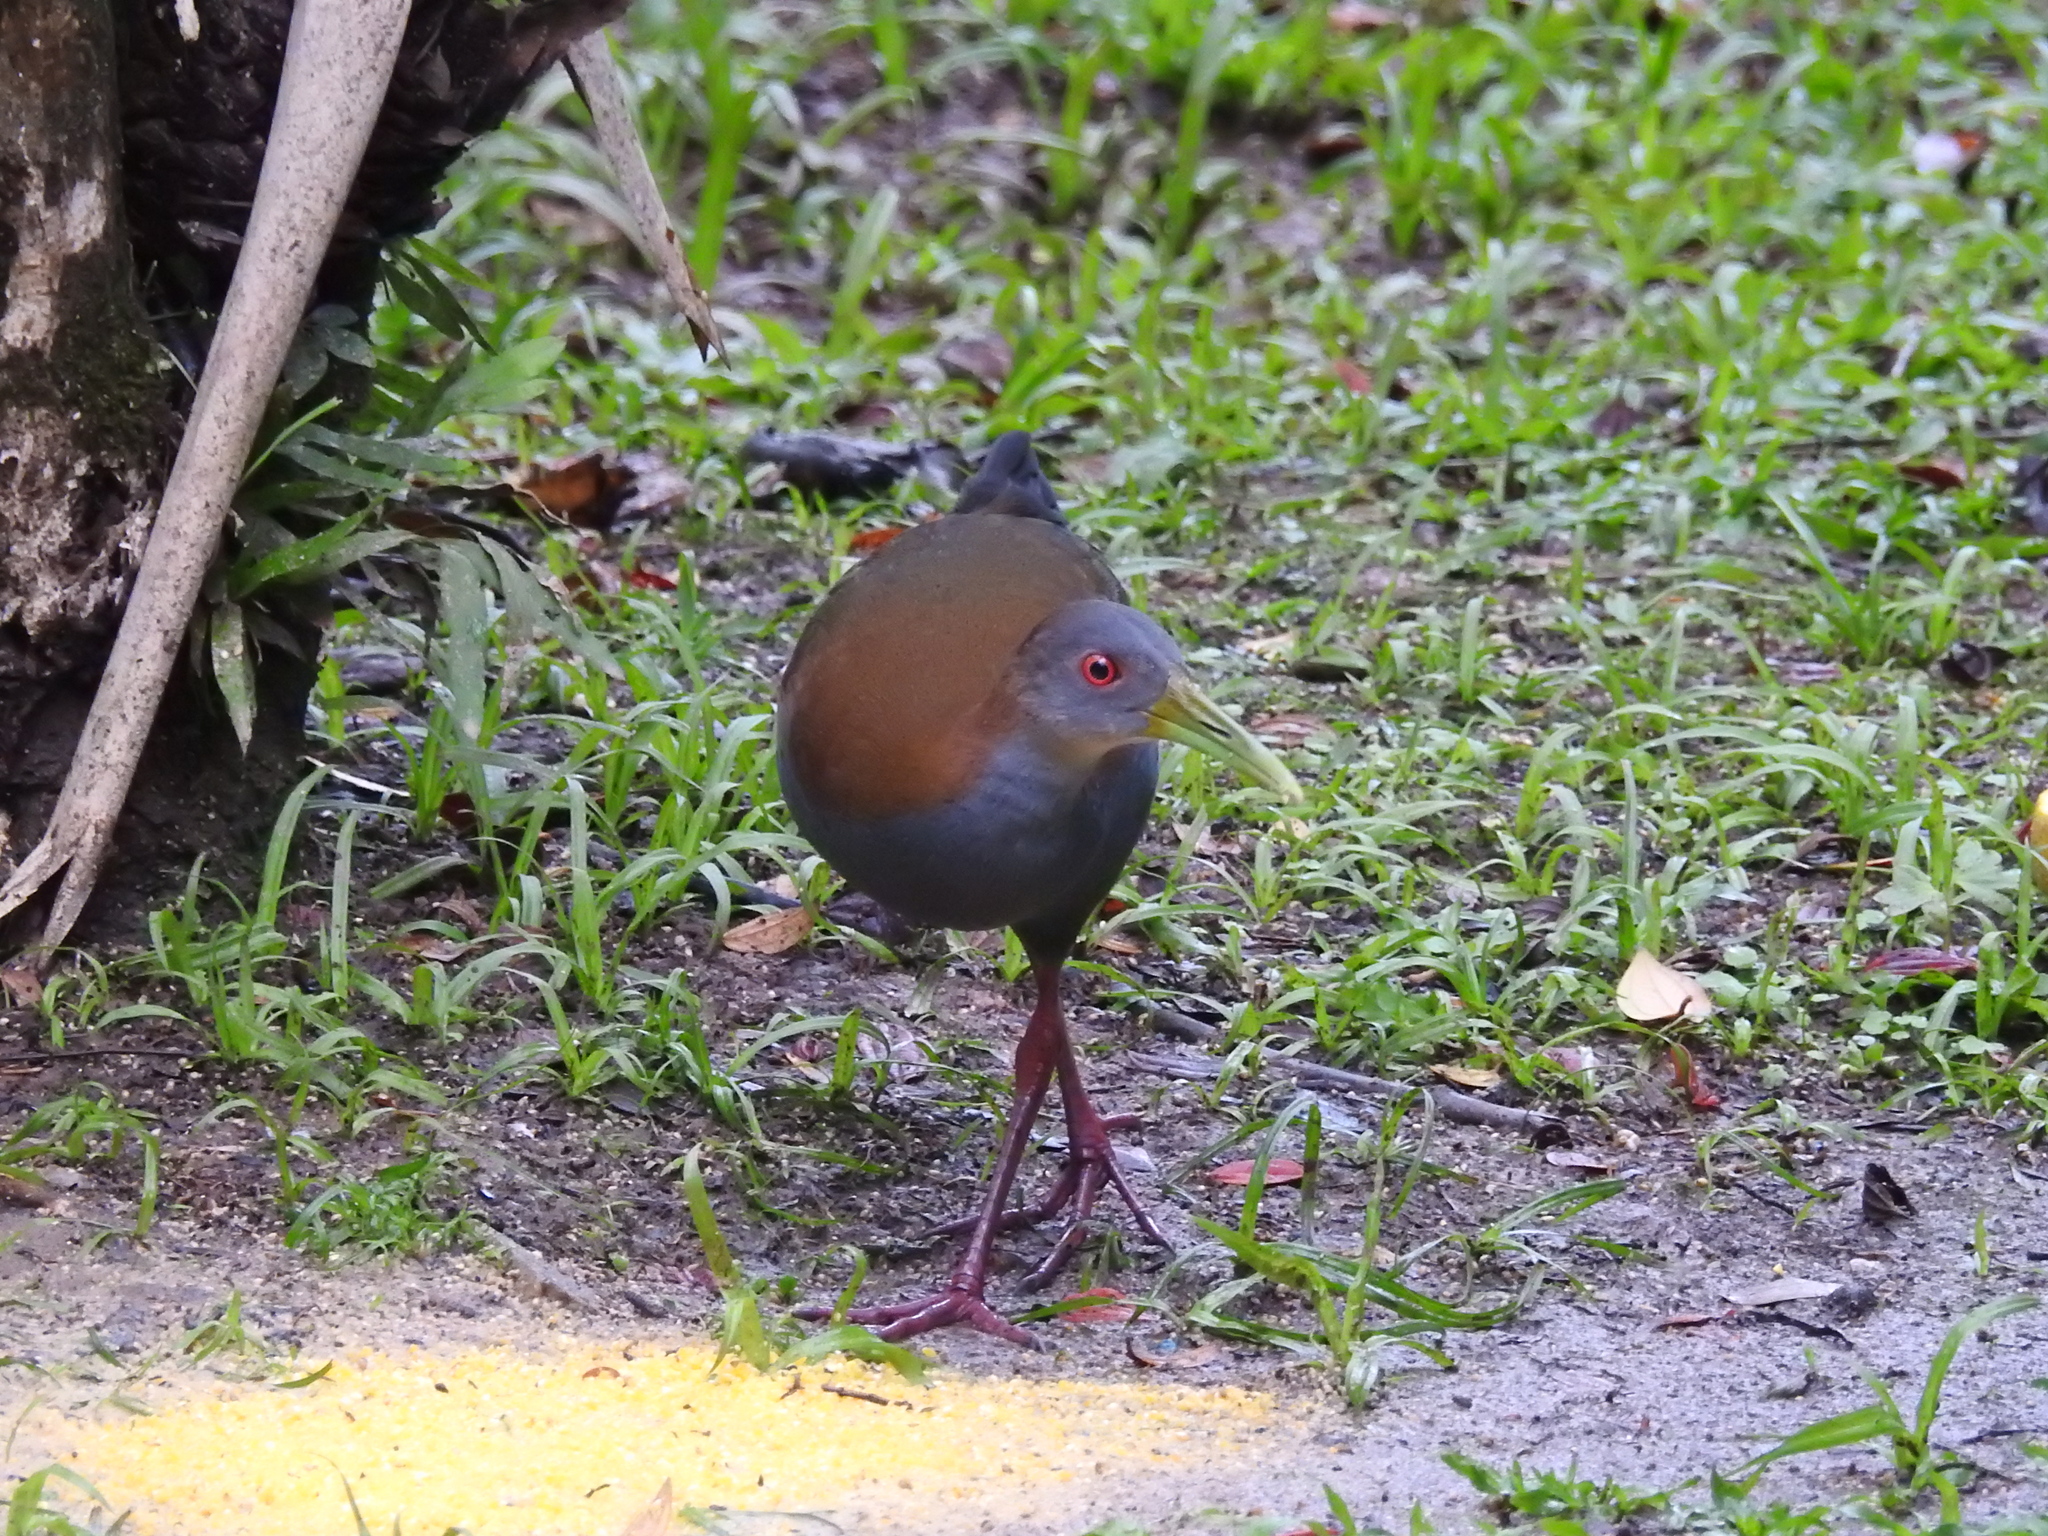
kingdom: Animalia
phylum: Chordata
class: Aves
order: Gruiformes
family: Rallidae
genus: Aramides
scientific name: Aramides saracura
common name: Slaty-breasted wood rail
